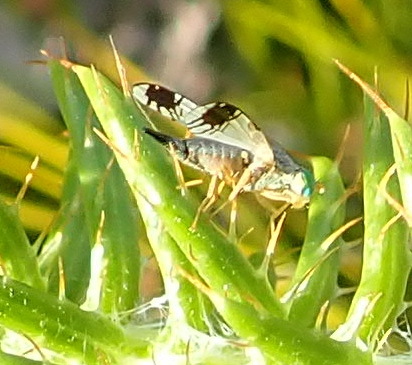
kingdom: Animalia
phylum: Arthropoda
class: Insecta
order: Diptera
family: Tephritidae
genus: Trupanea
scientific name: Trupanea decora
